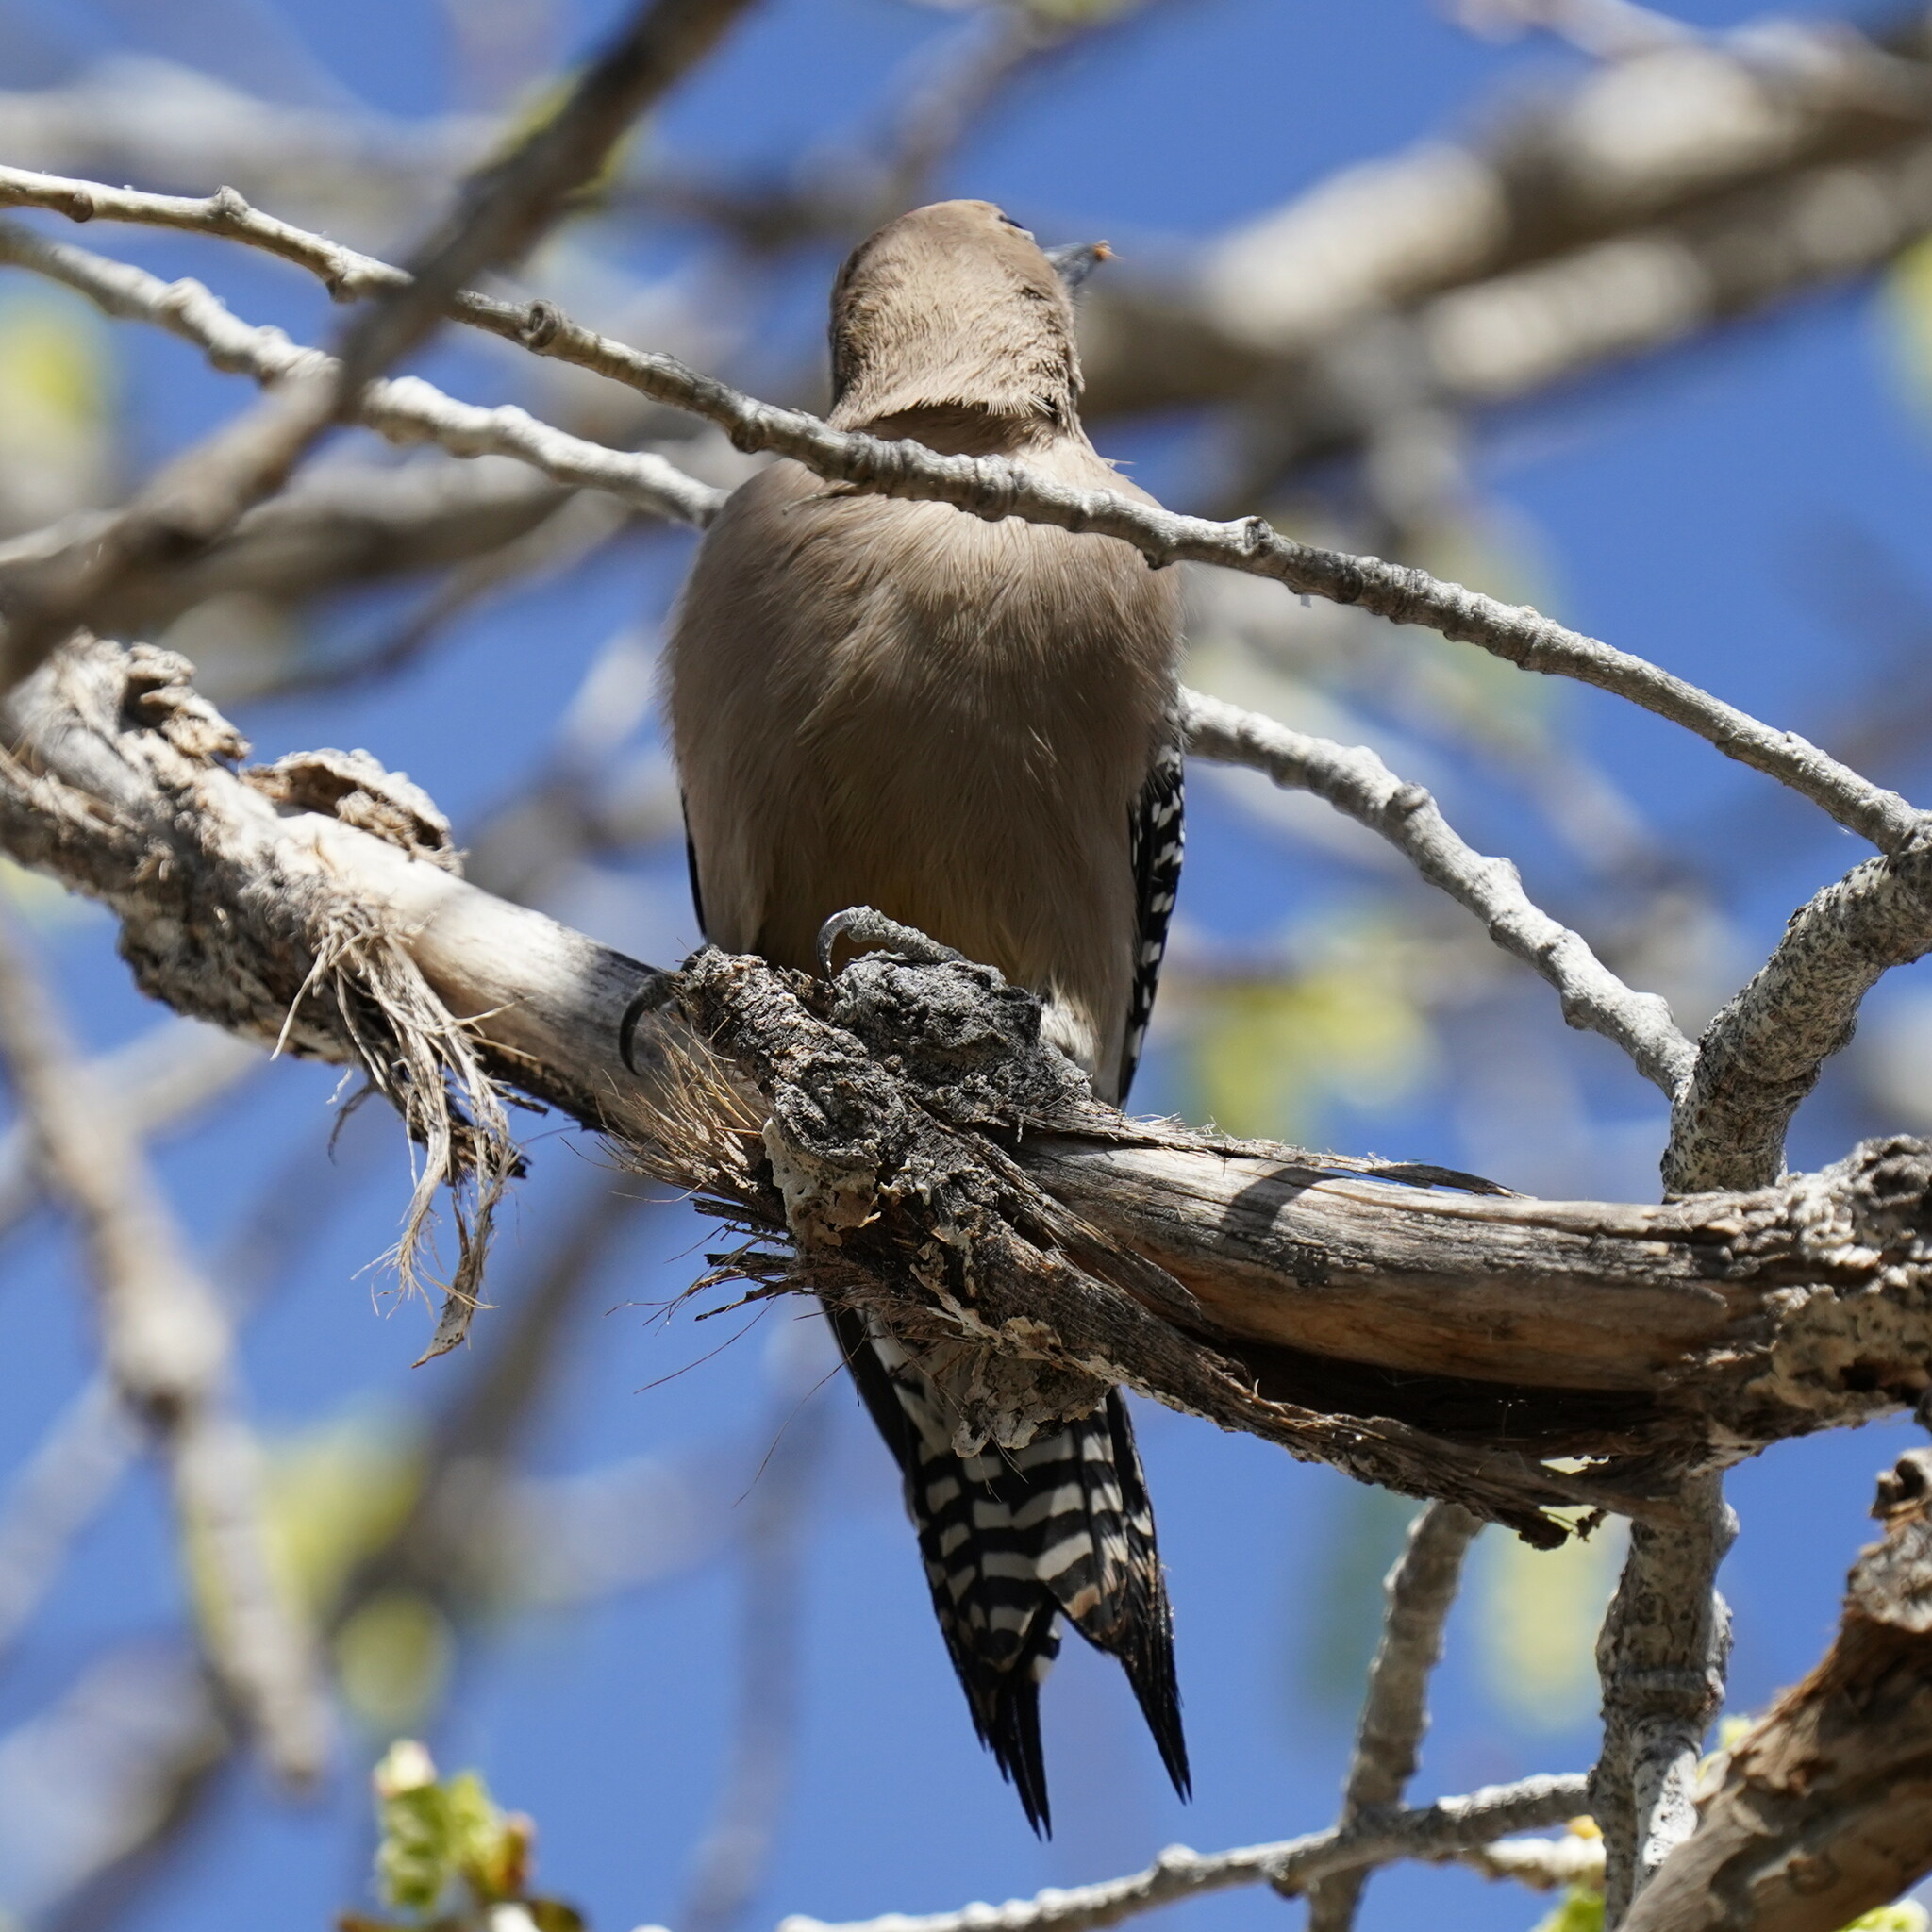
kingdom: Animalia
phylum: Chordata
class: Aves
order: Piciformes
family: Picidae
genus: Melanerpes
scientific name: Melanerpes uropygialis
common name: Gila woodpecker
